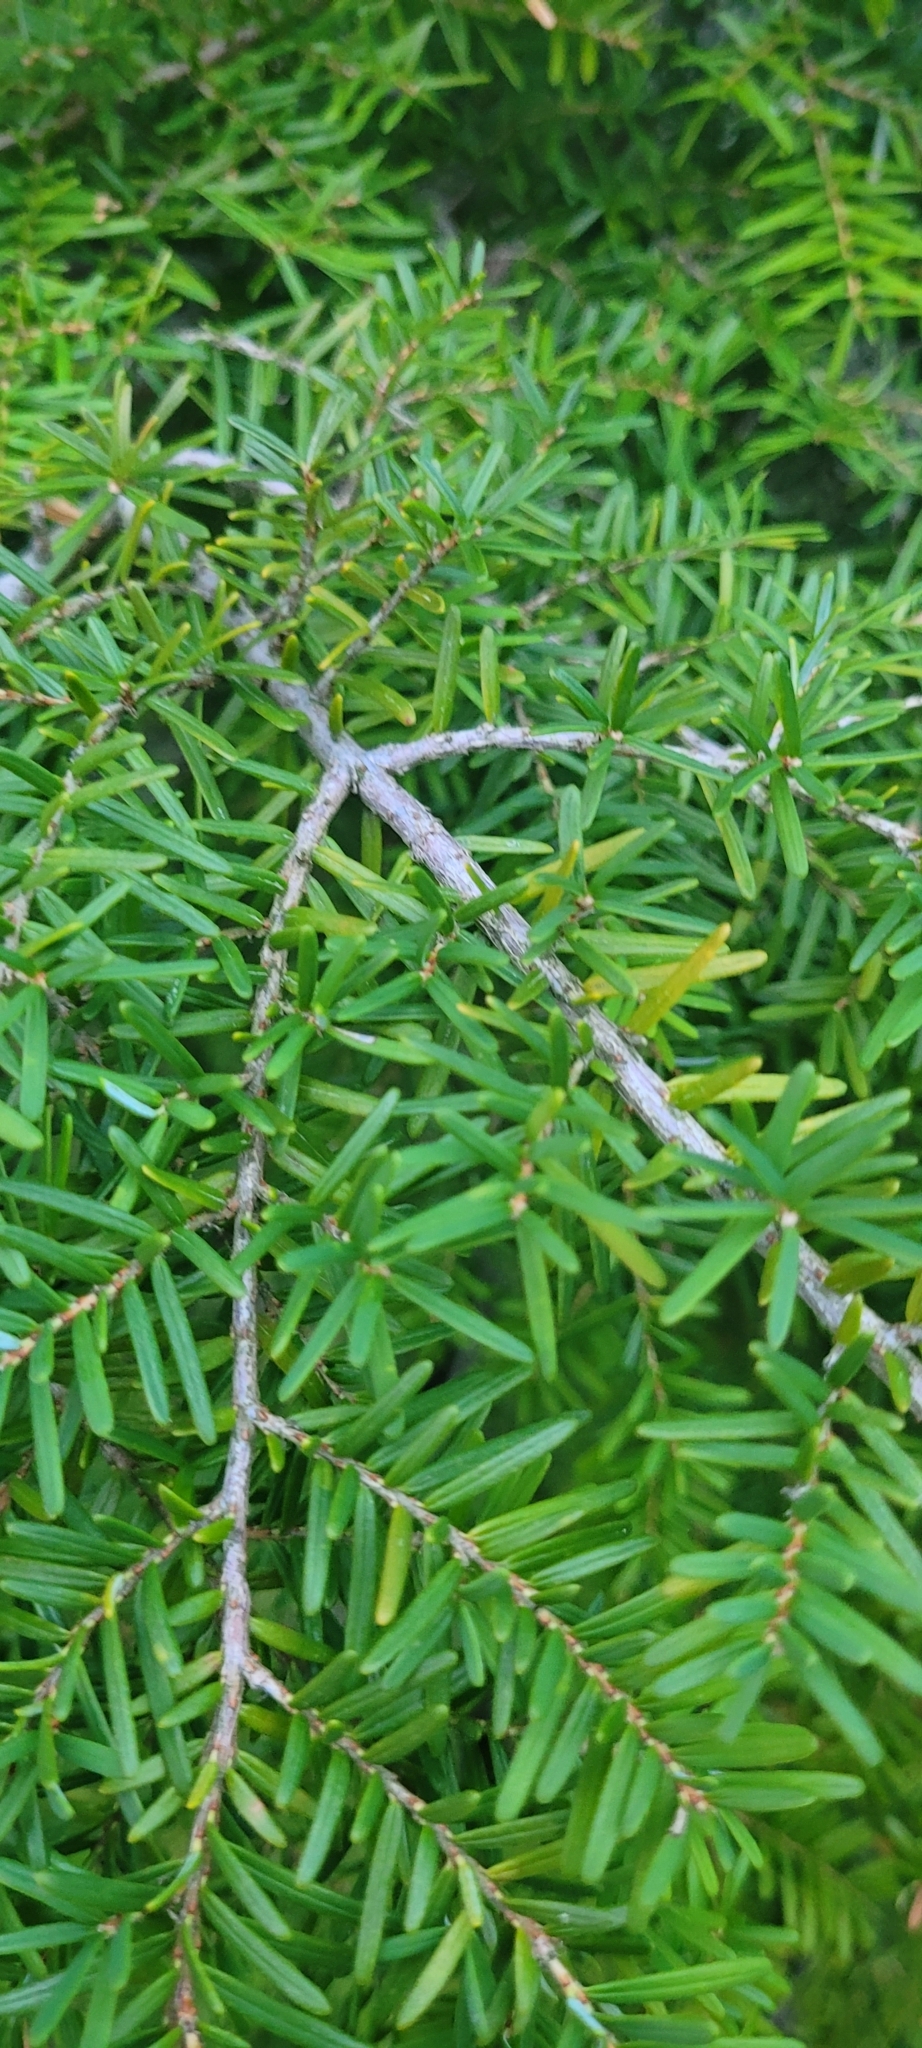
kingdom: Plantae
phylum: Tracheophyta
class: Pinopsida
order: Pinales
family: Pinaceae
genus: Tsuga
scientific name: Tsuga heterophylla
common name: Western hemlock
